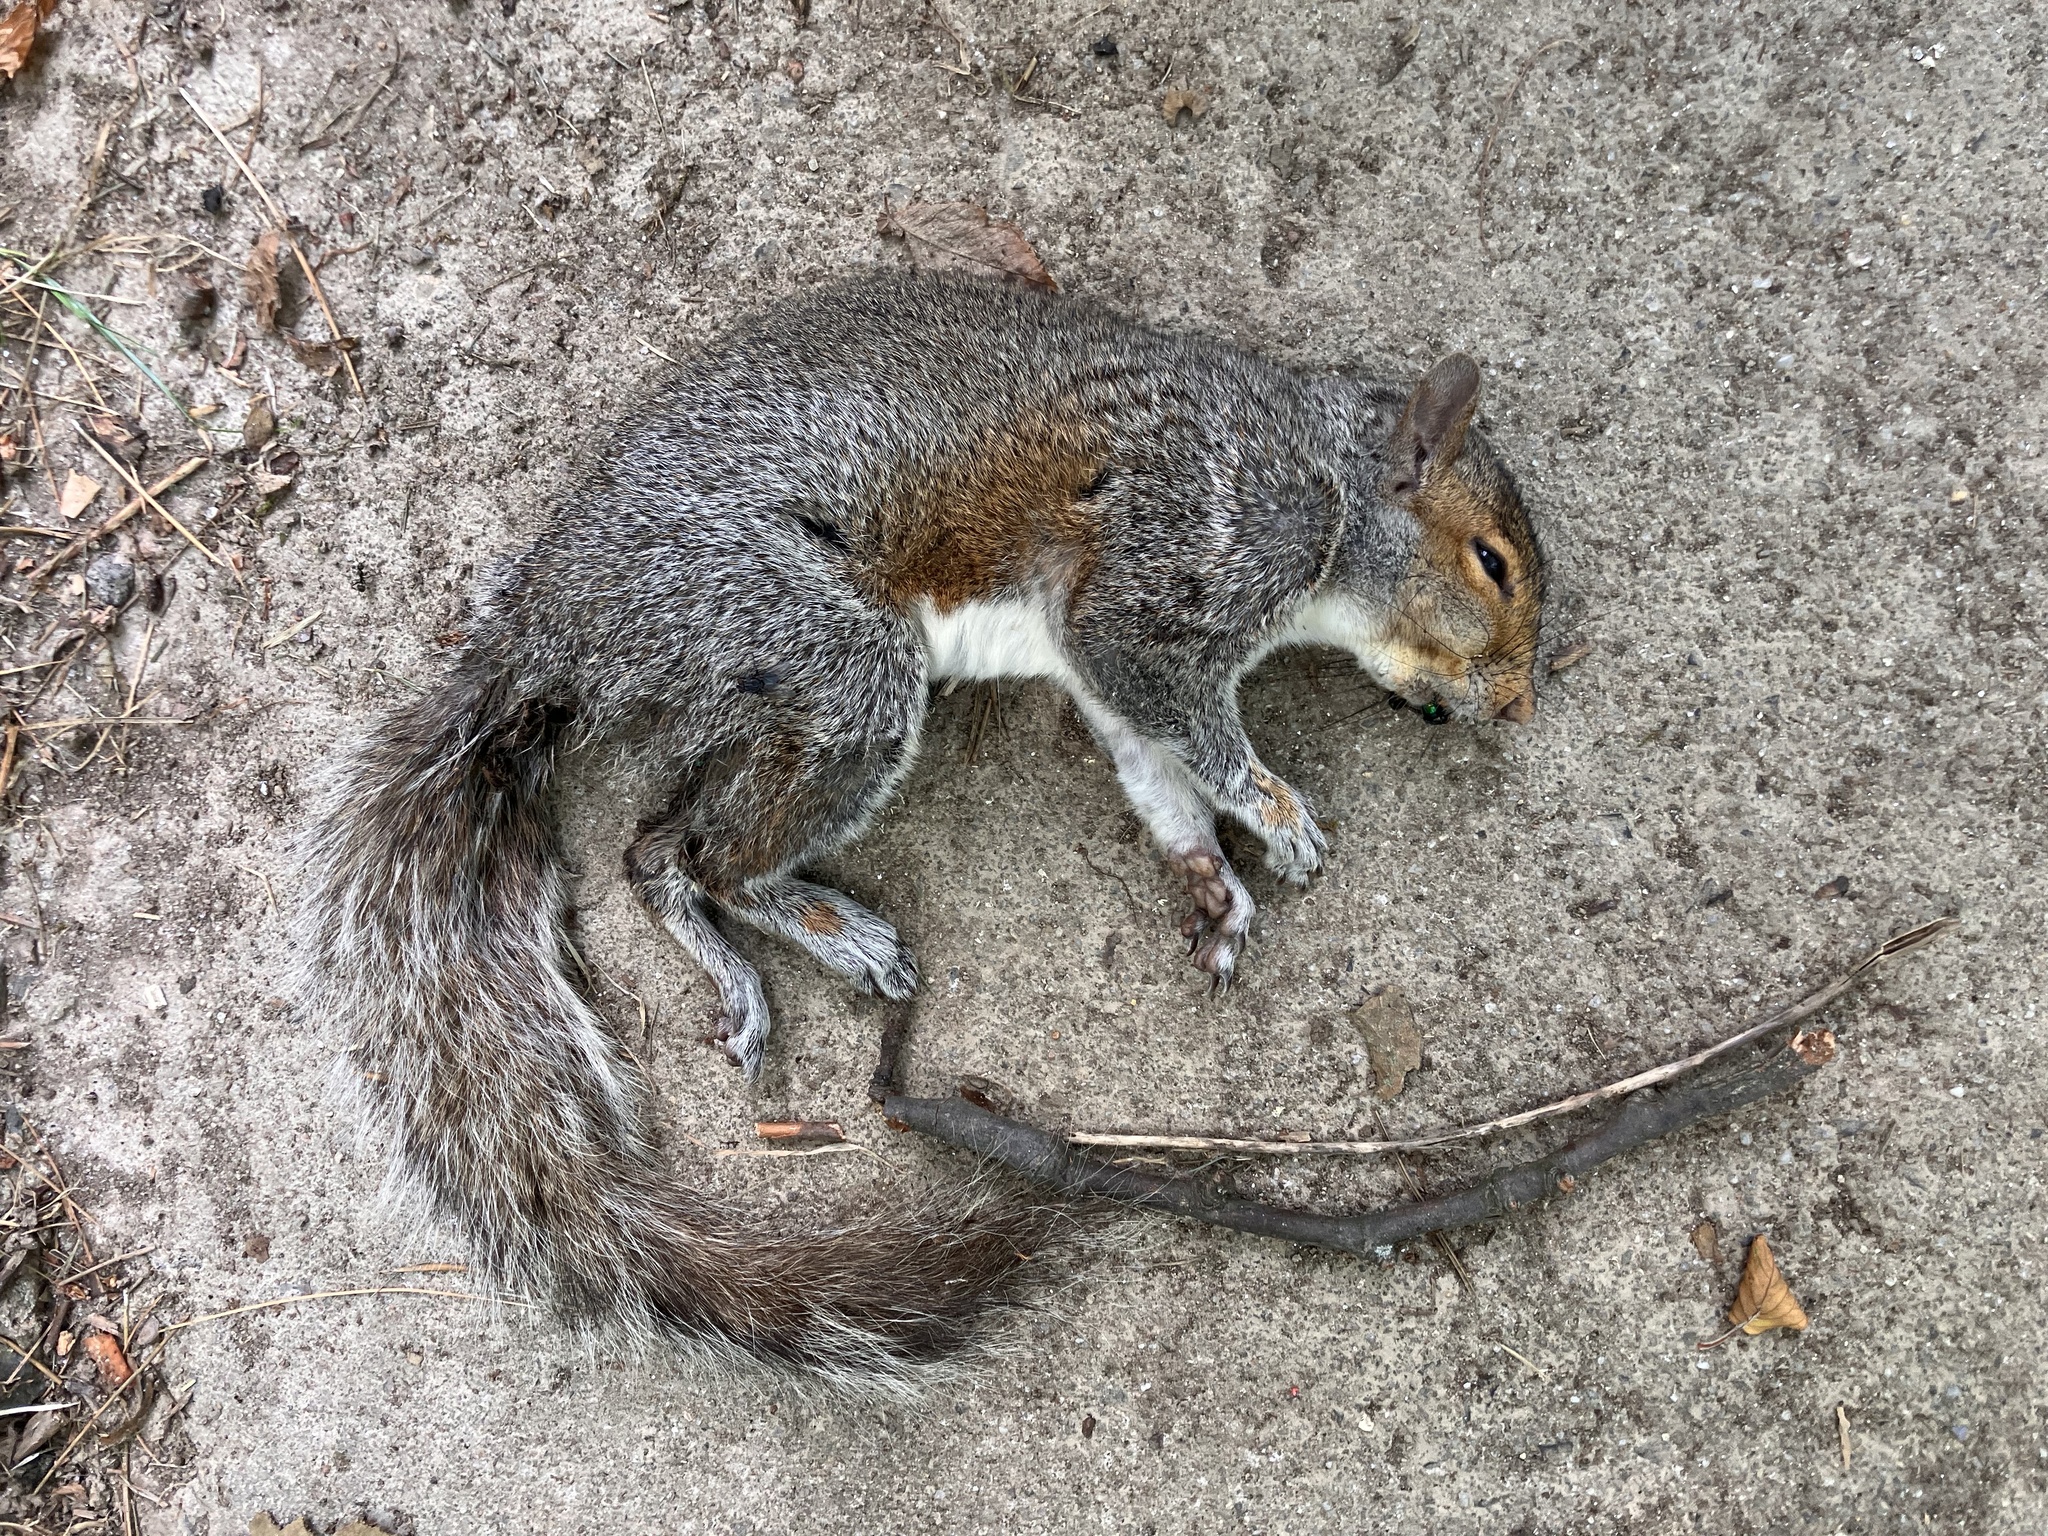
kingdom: Animalia
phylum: Chordata
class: Mammalia
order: Rodentia
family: Sciuridae
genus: Sciurus
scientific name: Sciurus carolinensis
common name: Eastern gray squirrel
